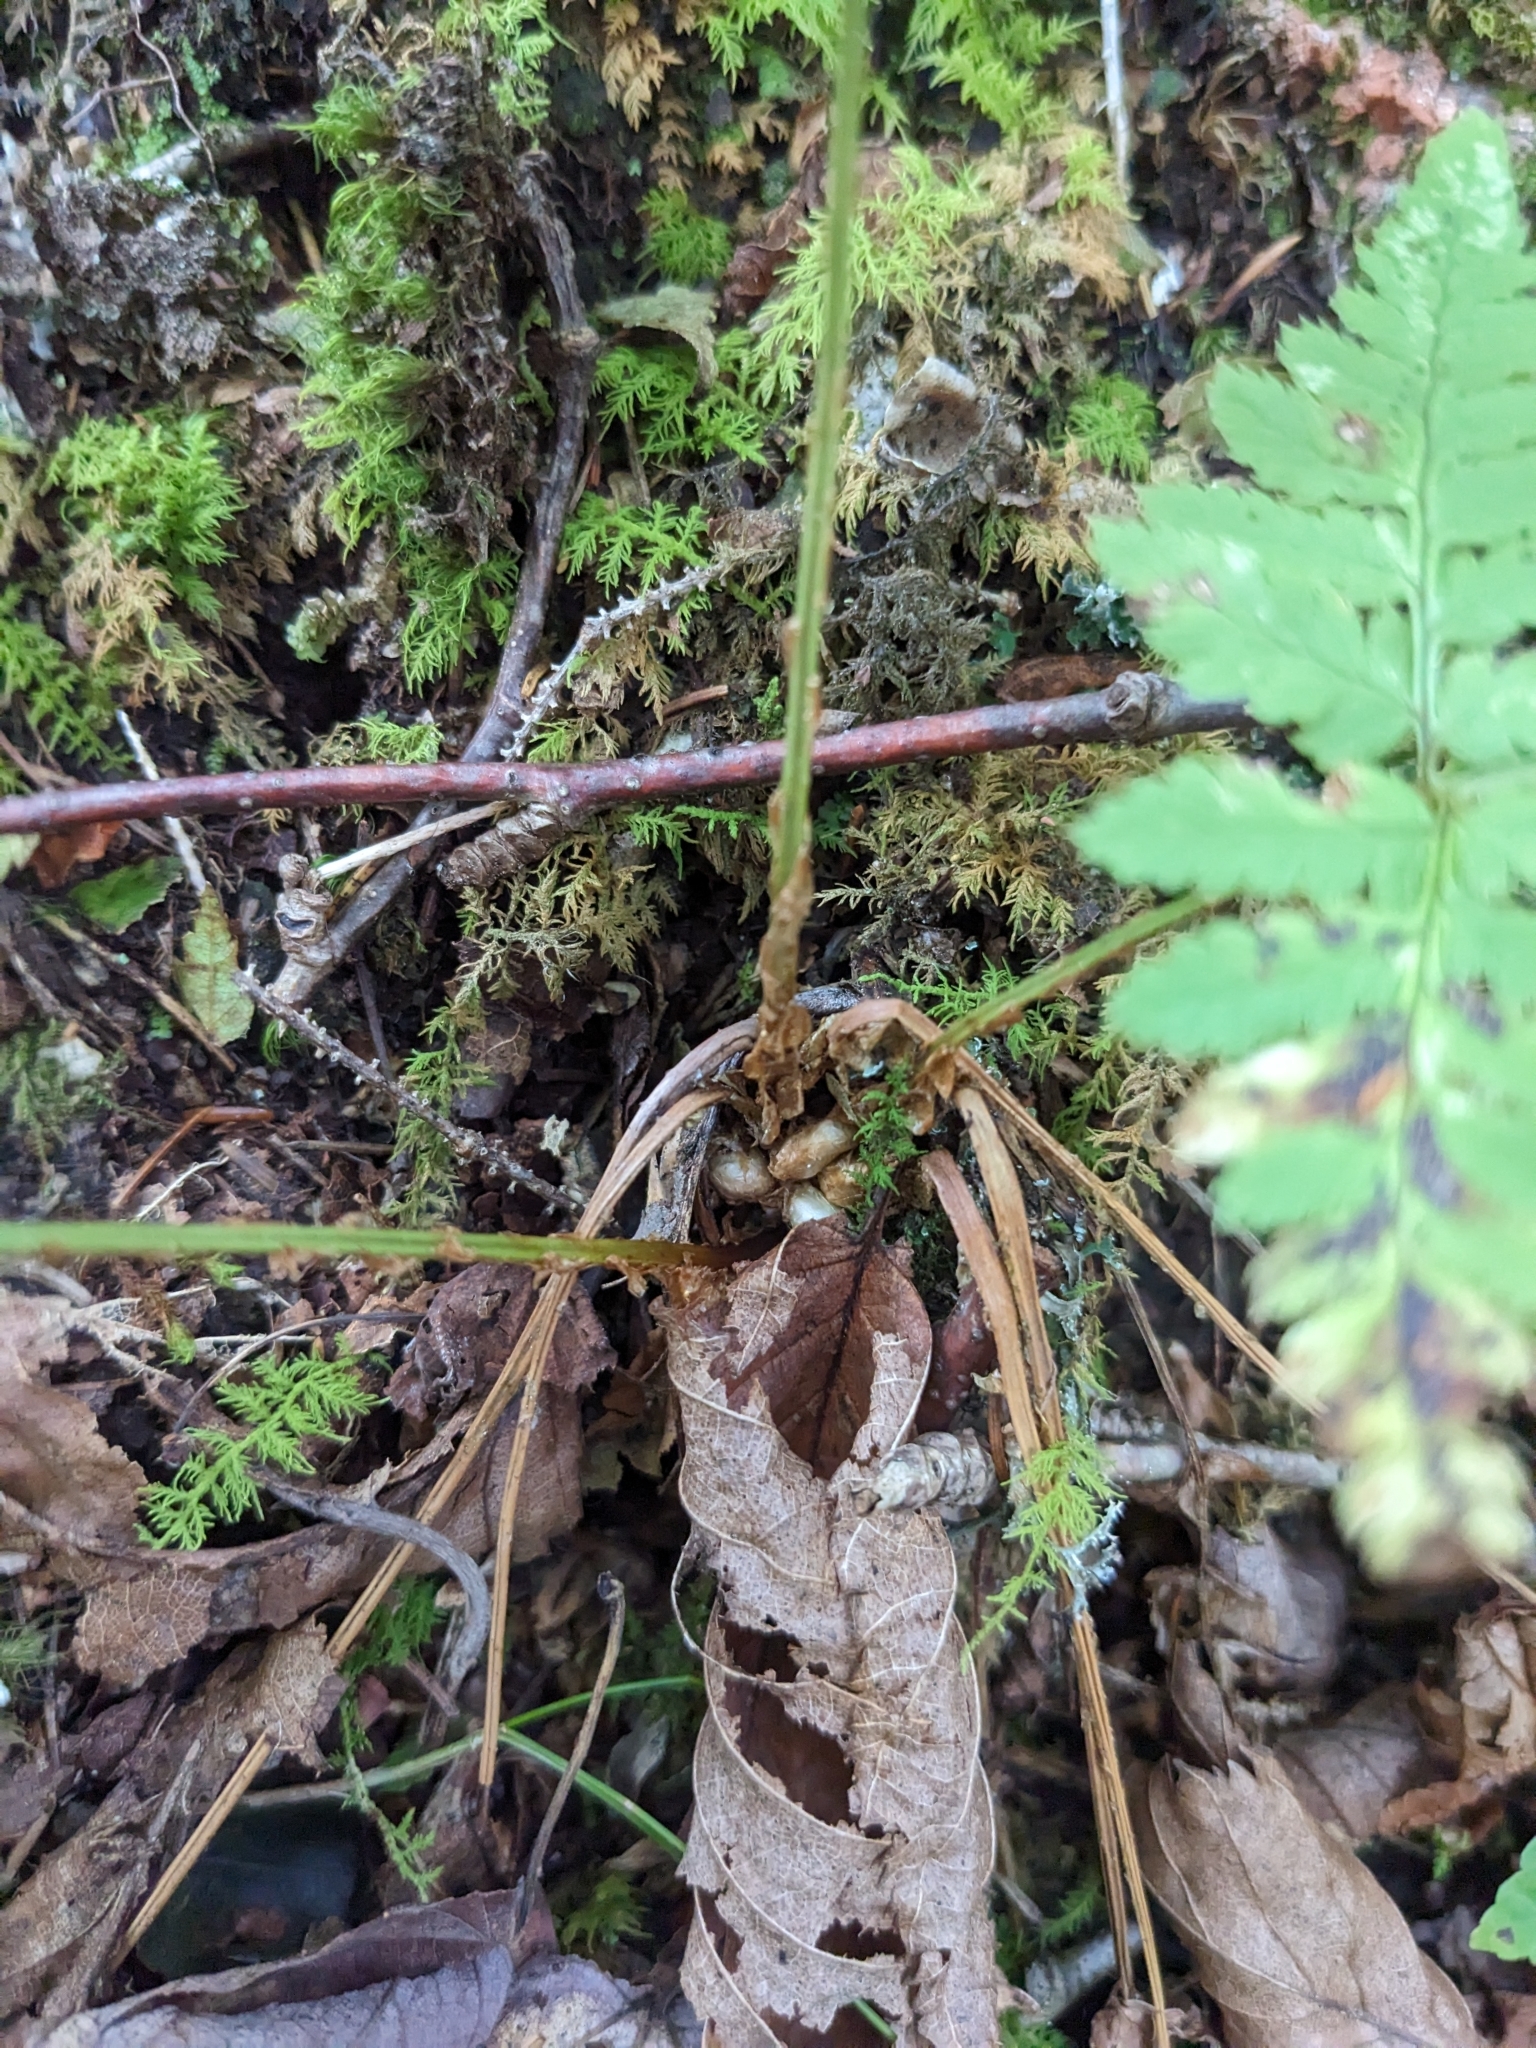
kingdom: Plantae
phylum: Tracheophyta
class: Polypodiopsida
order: Polypodiales
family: Dryopteridaceae
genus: Dryopteris
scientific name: Dryopteris carthusiana
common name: Narrow buckler-fern
